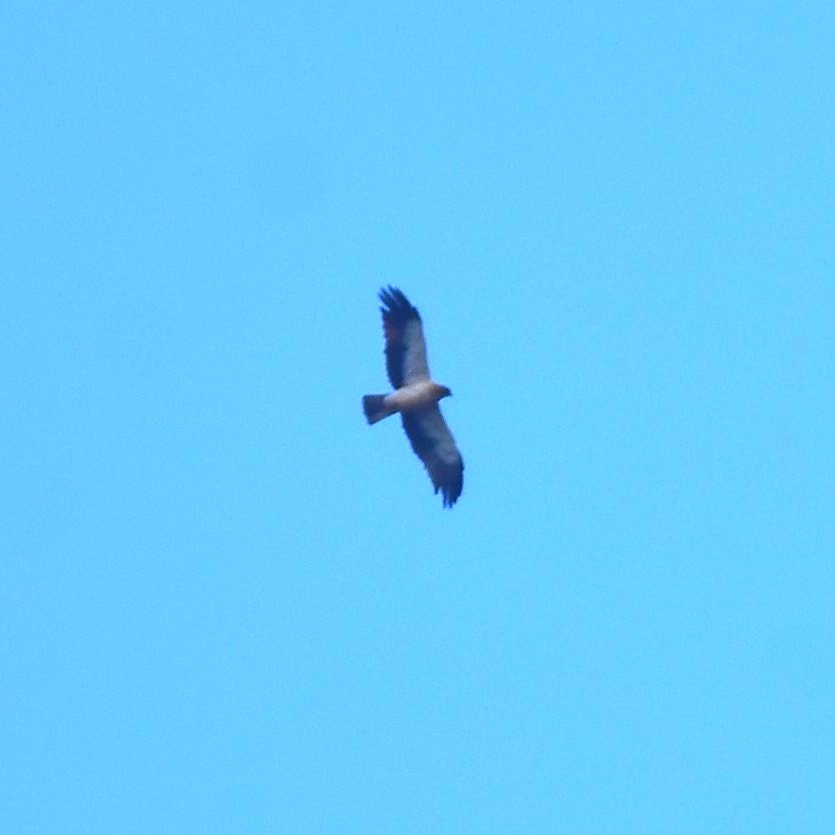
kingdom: Animalia
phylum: Chordata
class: Aves
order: Accipitriformes
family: Accipitridae
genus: Hieraaetus
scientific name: Hieraaetus pennatus
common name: Booted eagle
